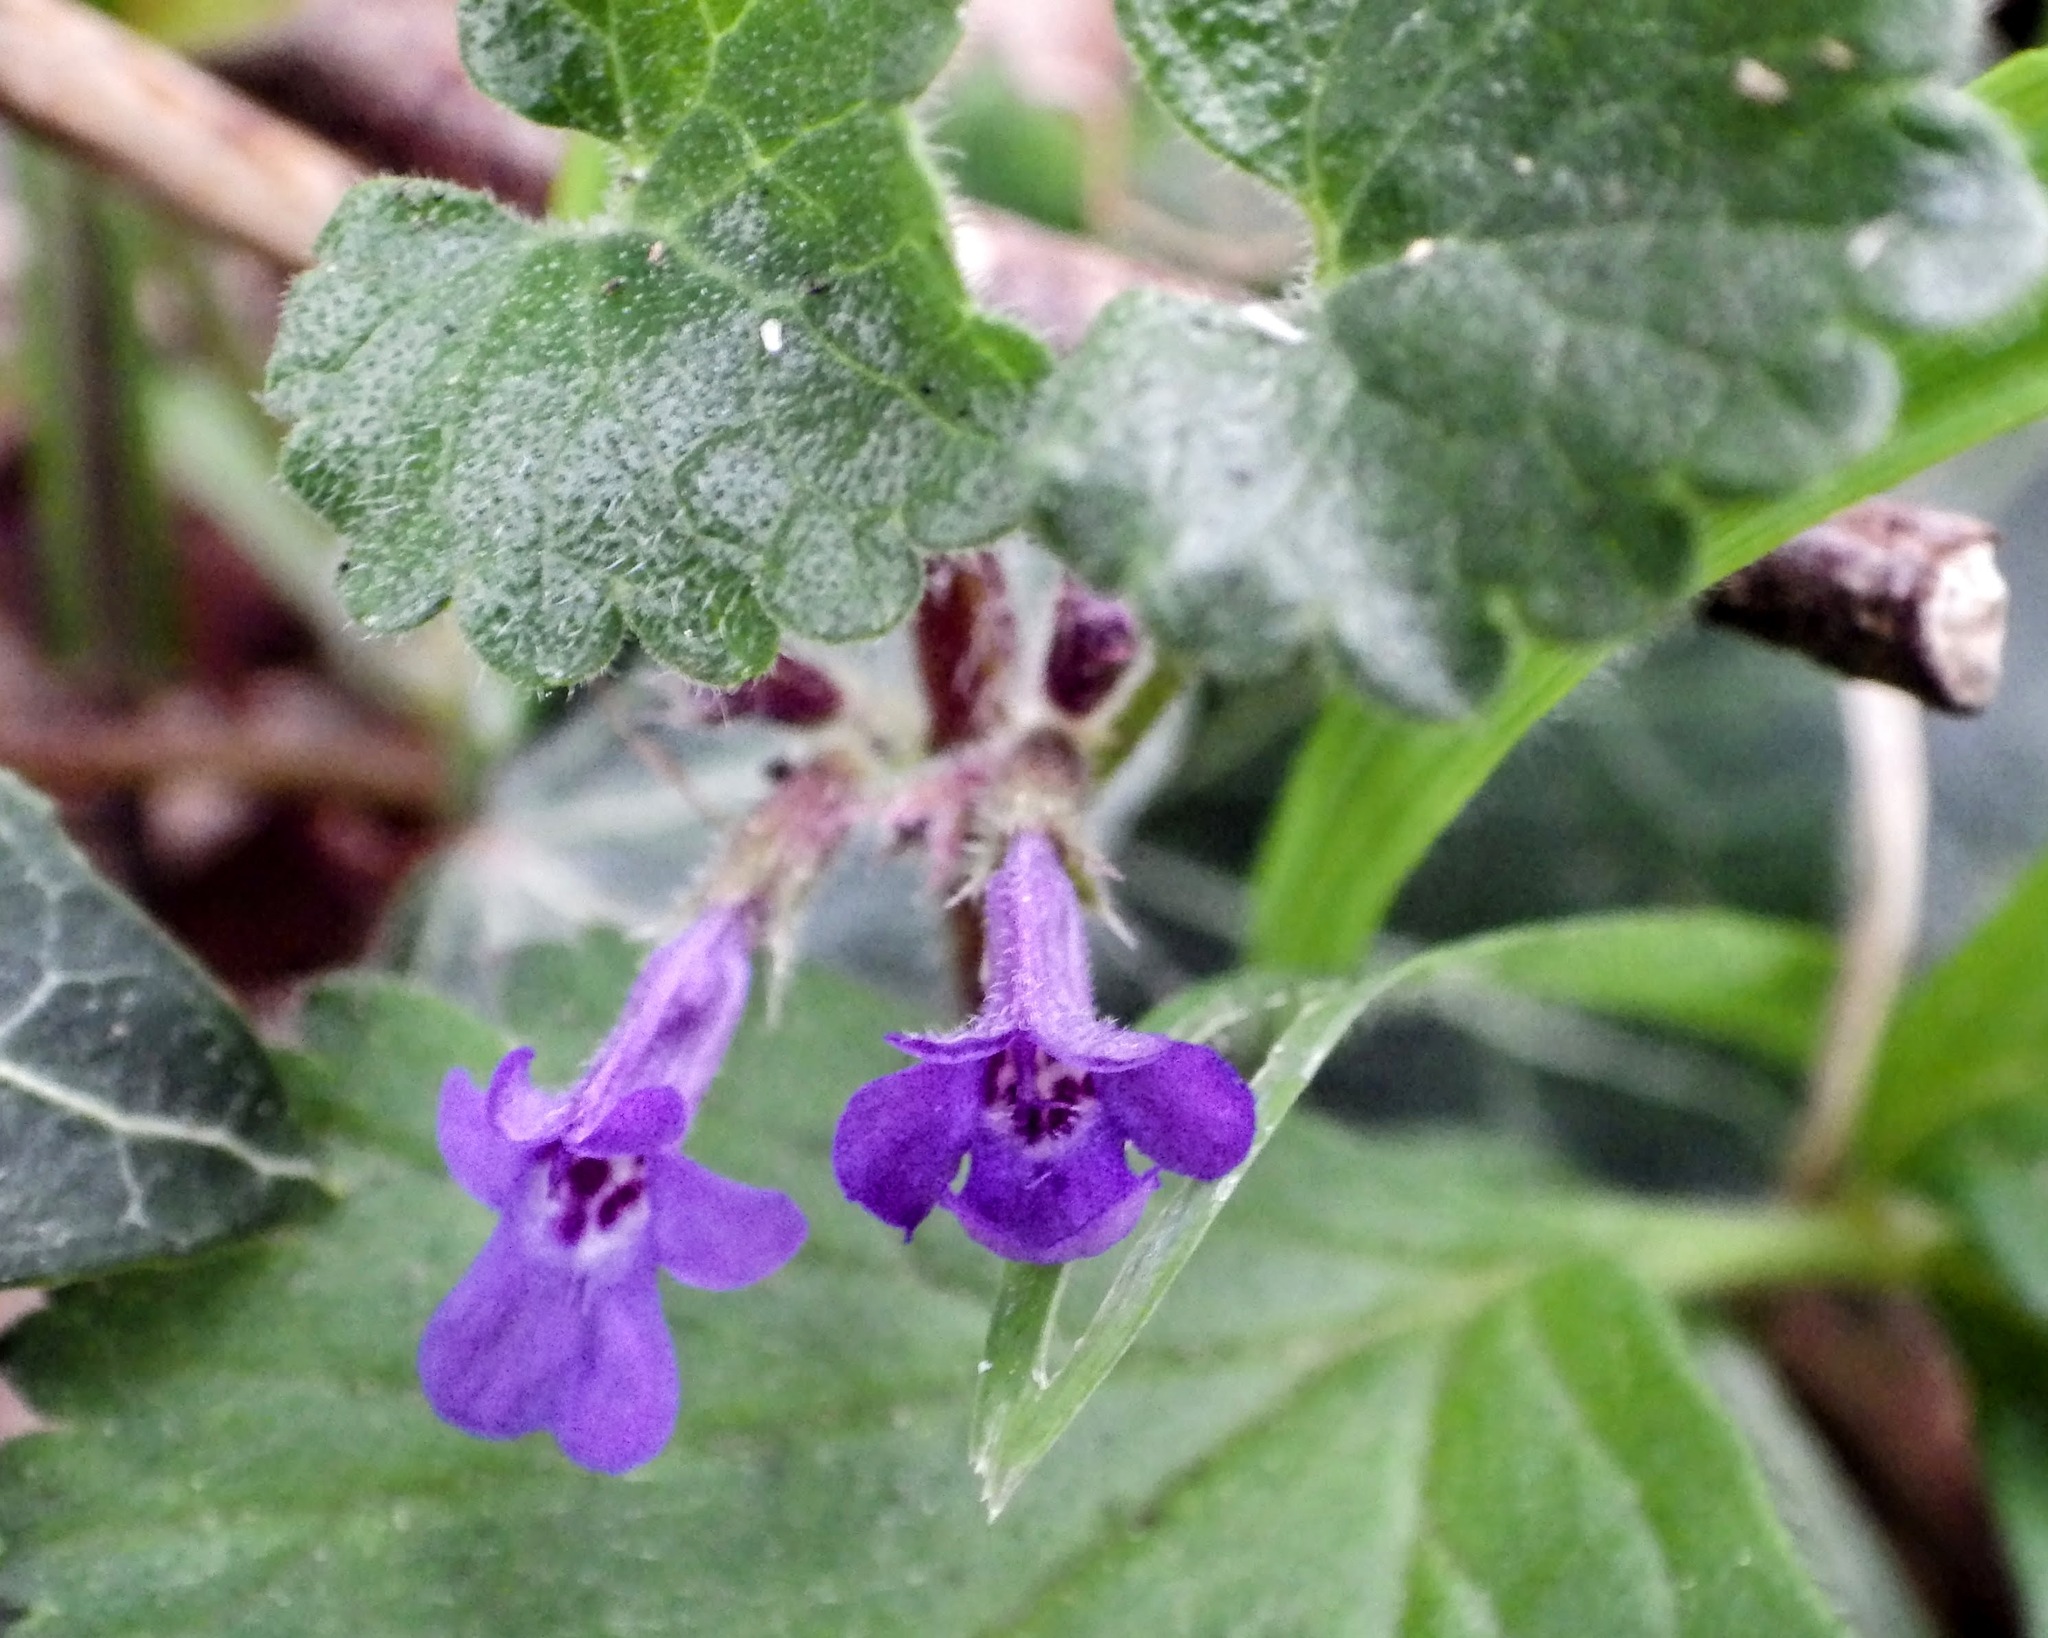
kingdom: Plantae
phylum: Tracheophyta
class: Magnoliopsida
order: Lamiales
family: Lamiaceae
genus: Glechoma
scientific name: Glechoma hederacea
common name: Ground ivy
